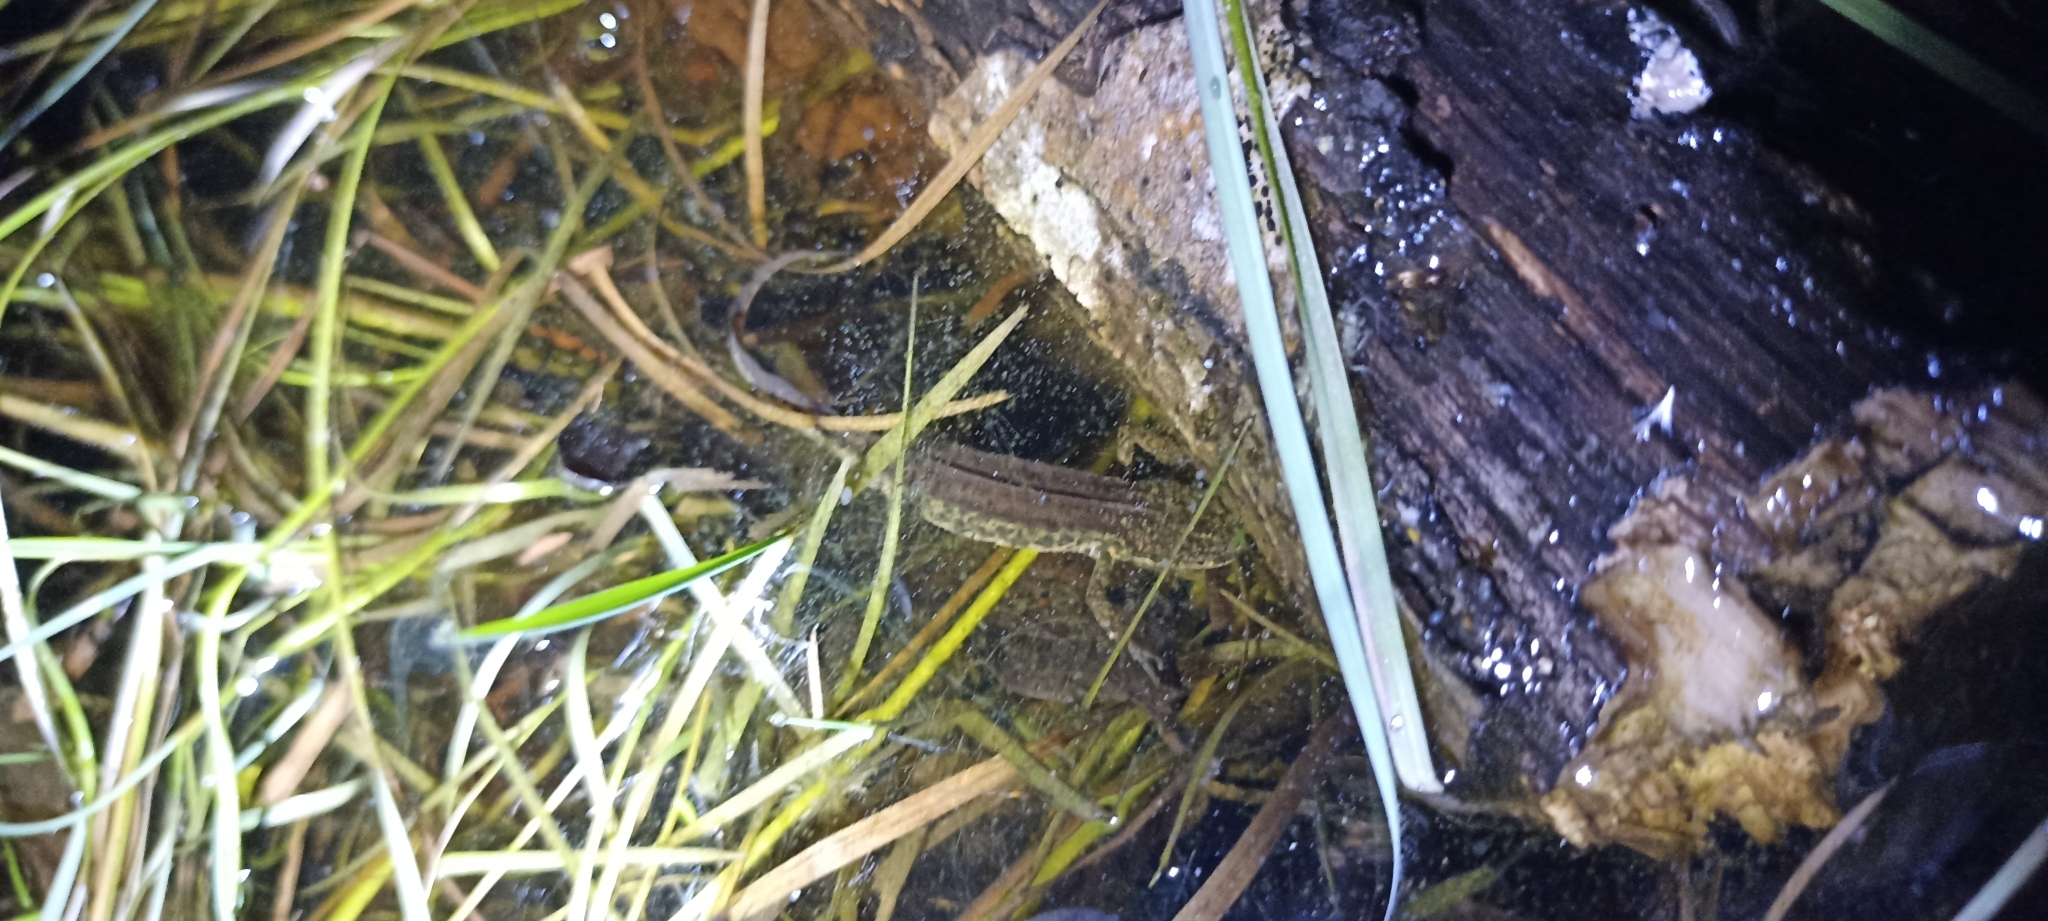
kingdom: Animalia
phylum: Chordata
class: Amphibia
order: Caudata
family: Salamandridae
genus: Lissotriton
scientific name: Lissotriton helveticus
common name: Palmate newt
